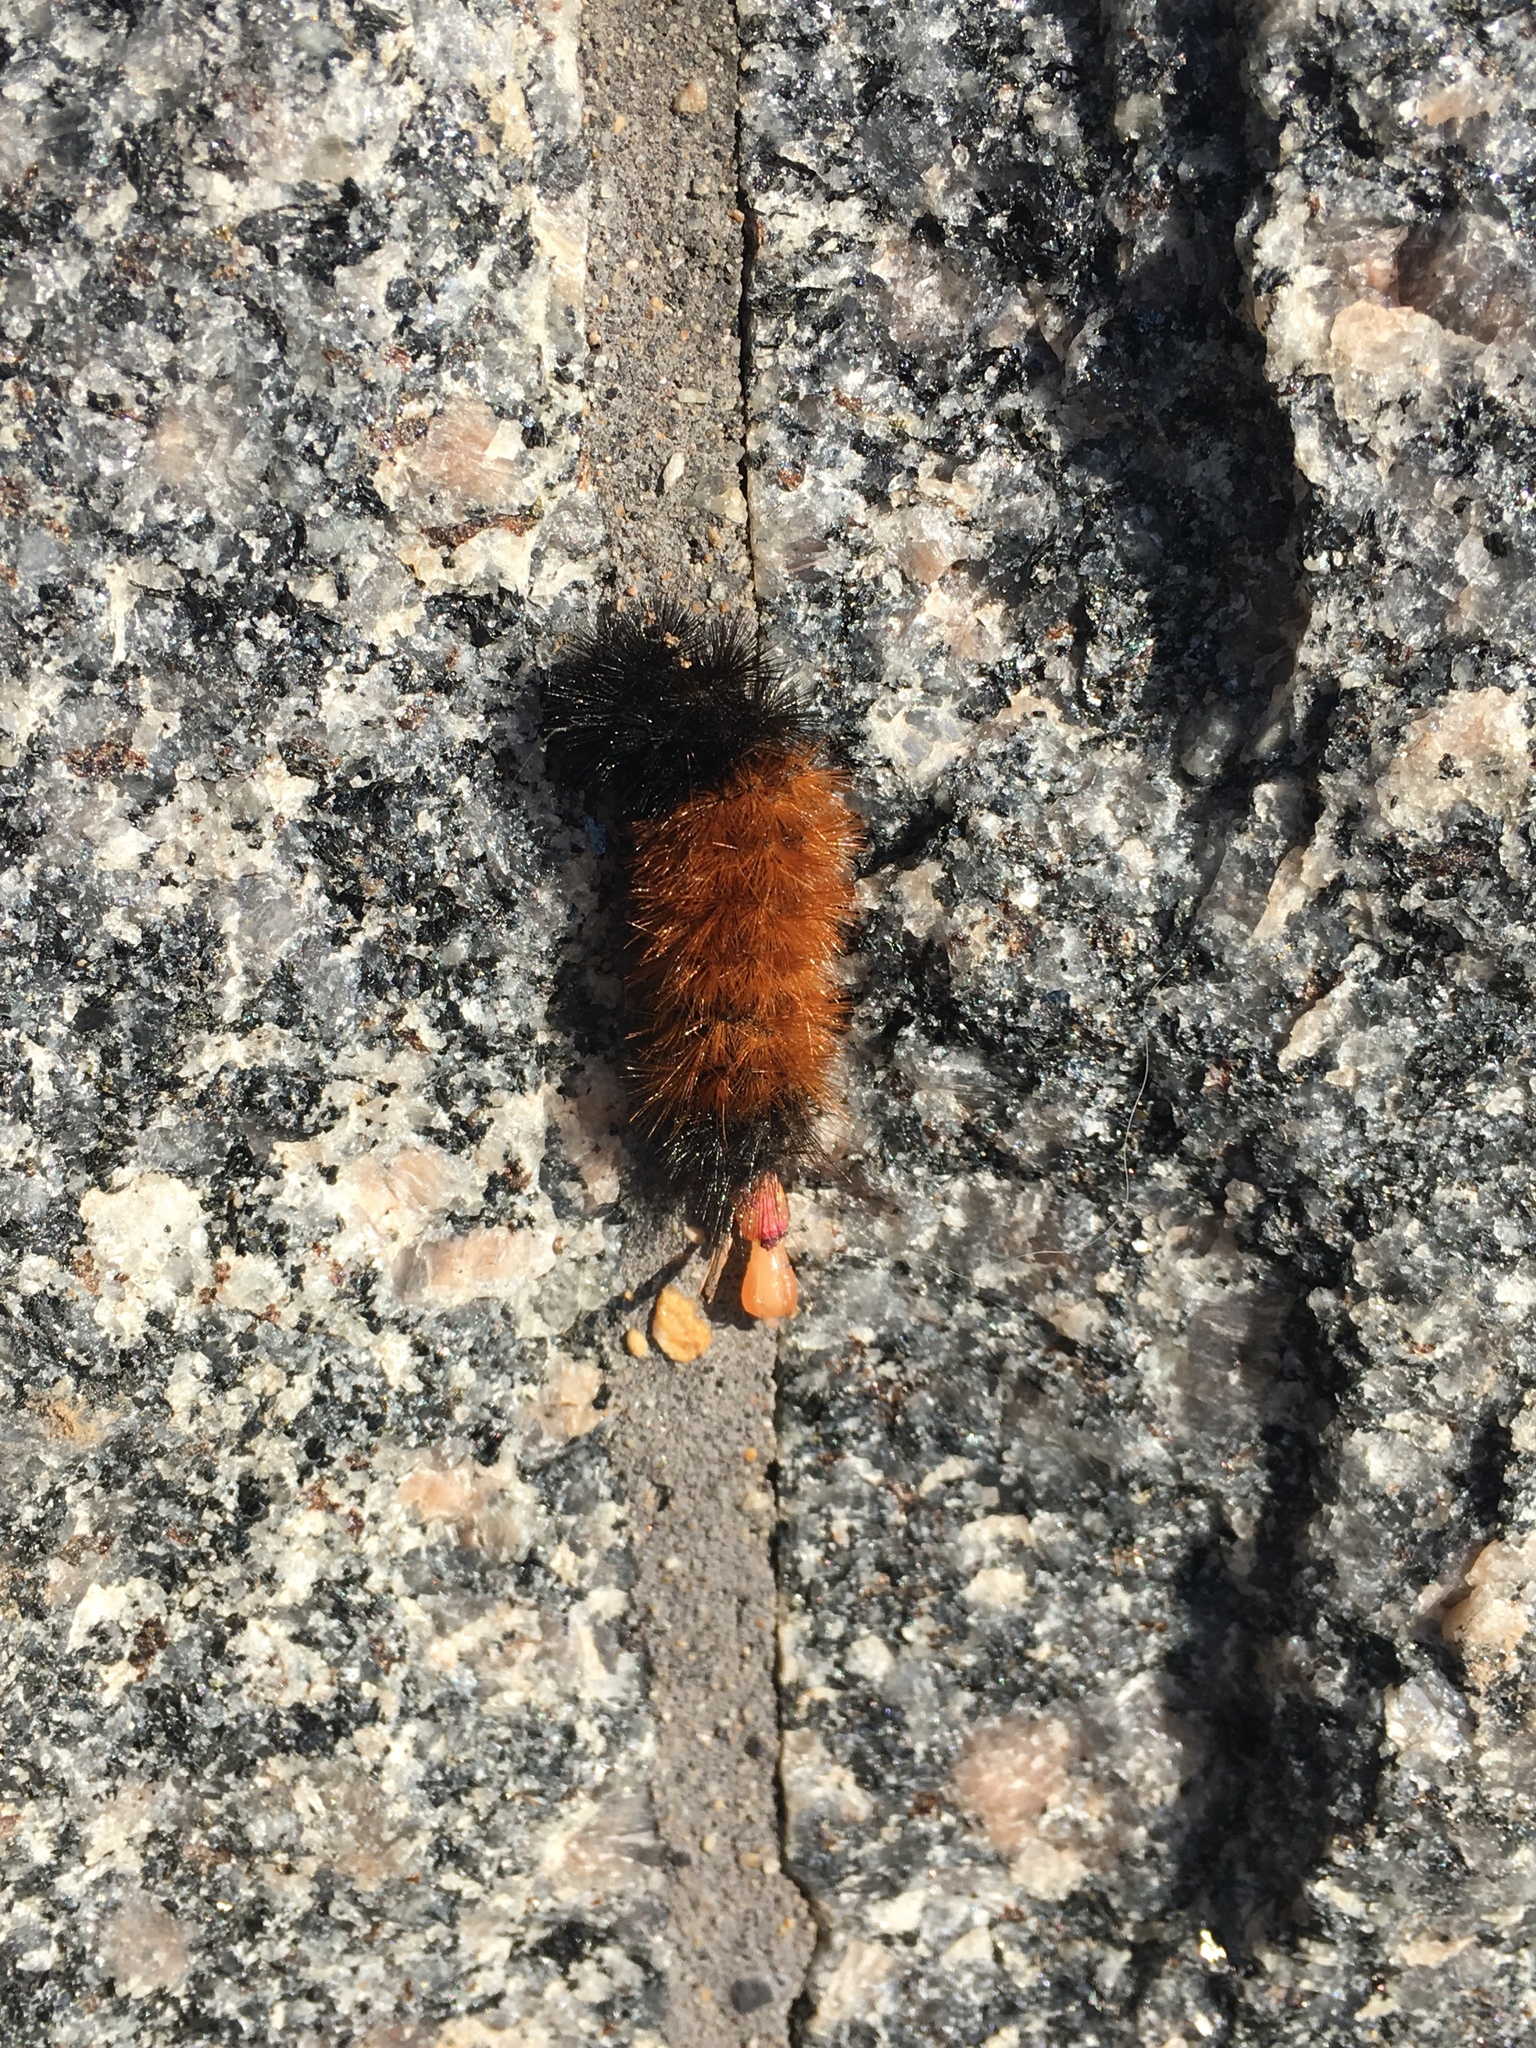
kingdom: Animalia
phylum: Arthropoda
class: Insecta
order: Lepidoptera
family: Erebidae
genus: Pyrrharctia
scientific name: Pyrrharctia isabella
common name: Isabella tiger moth
